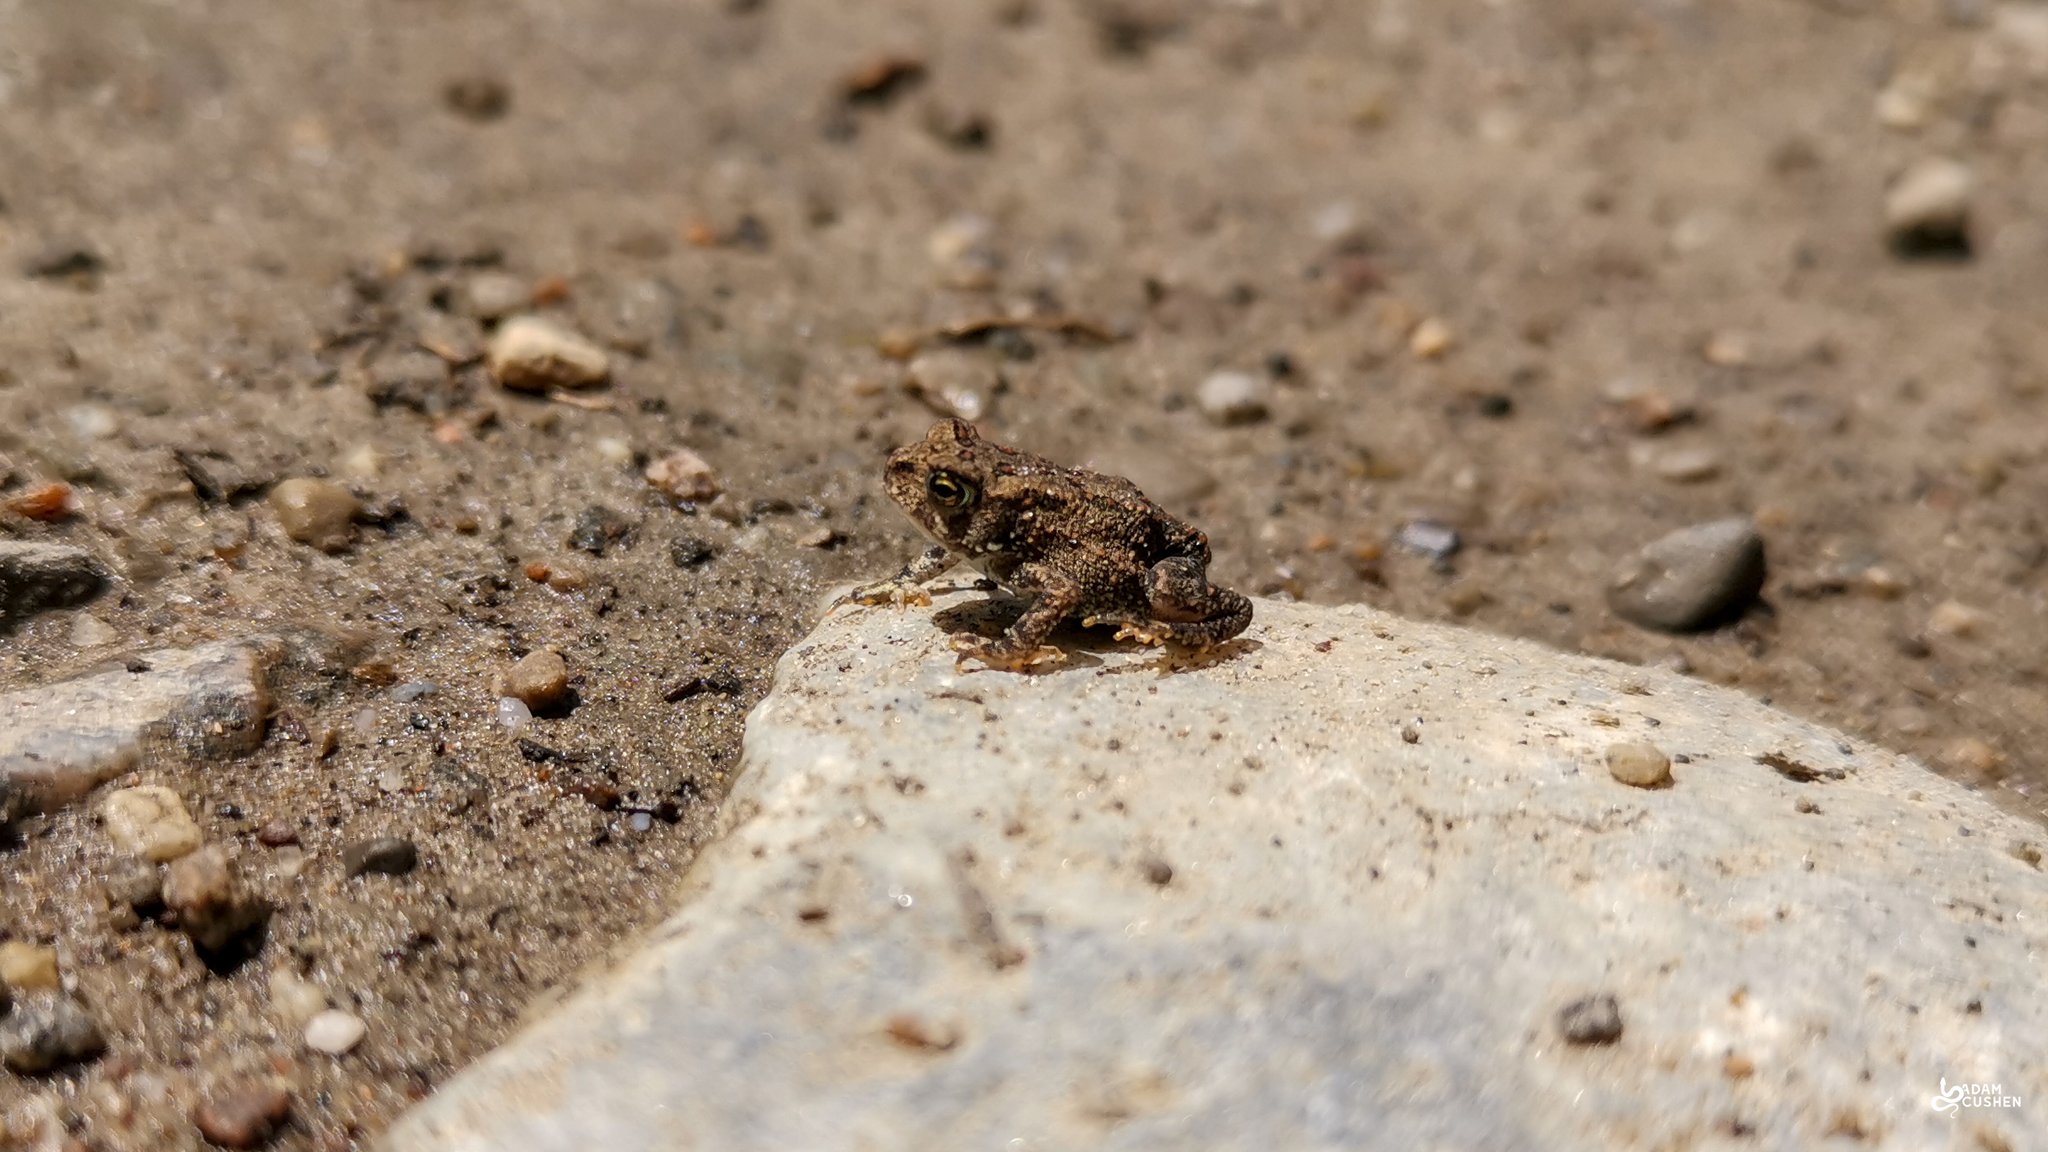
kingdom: Animalia
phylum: Chordata
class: Amphibia
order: Anura
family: Bufonidae
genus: Anaxyrus
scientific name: Anaxyrus americanus
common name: American toad
